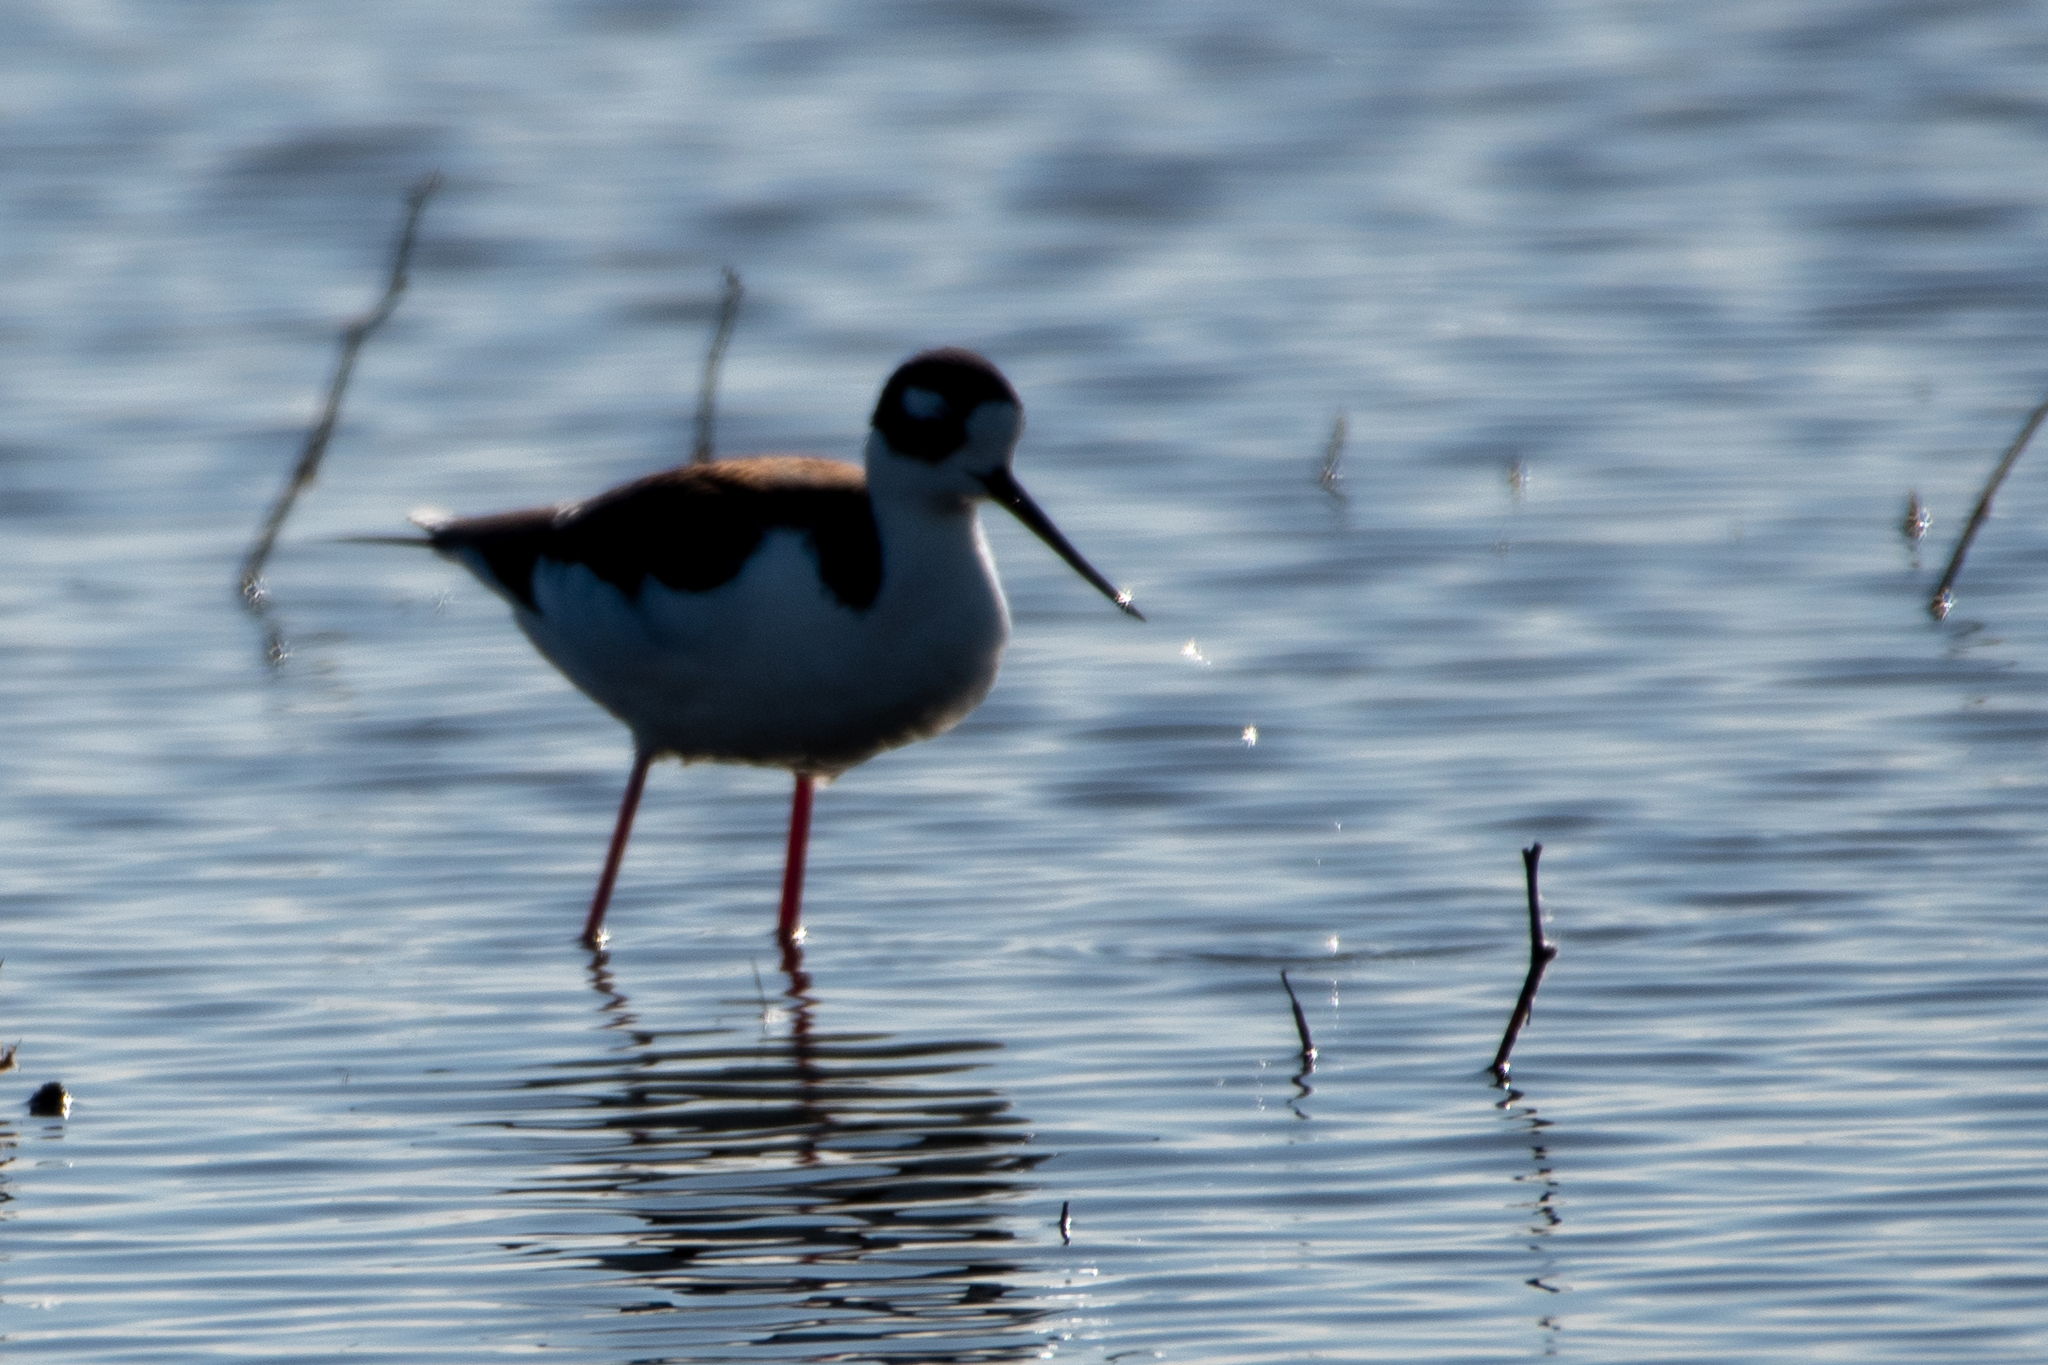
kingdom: Animalia
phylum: Chordata
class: Aves
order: Charadriiformes
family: Recurvirostridae
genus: Himantopus
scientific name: Himantopus mexicanus
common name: Black-necked stilt
